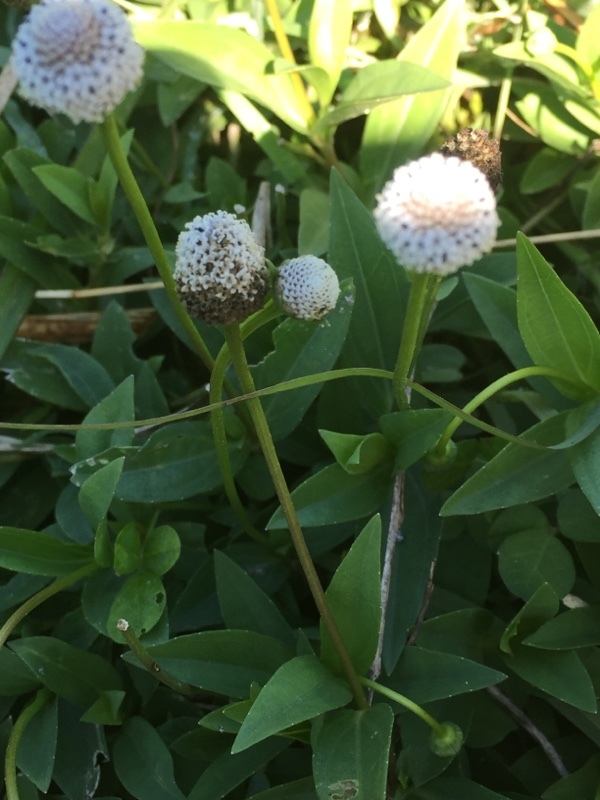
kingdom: Plantae
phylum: Tracheophyta
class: Magnoliopsida
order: Asterales
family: Asteraceae
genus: Spilanthes
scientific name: Spilanthes urens
